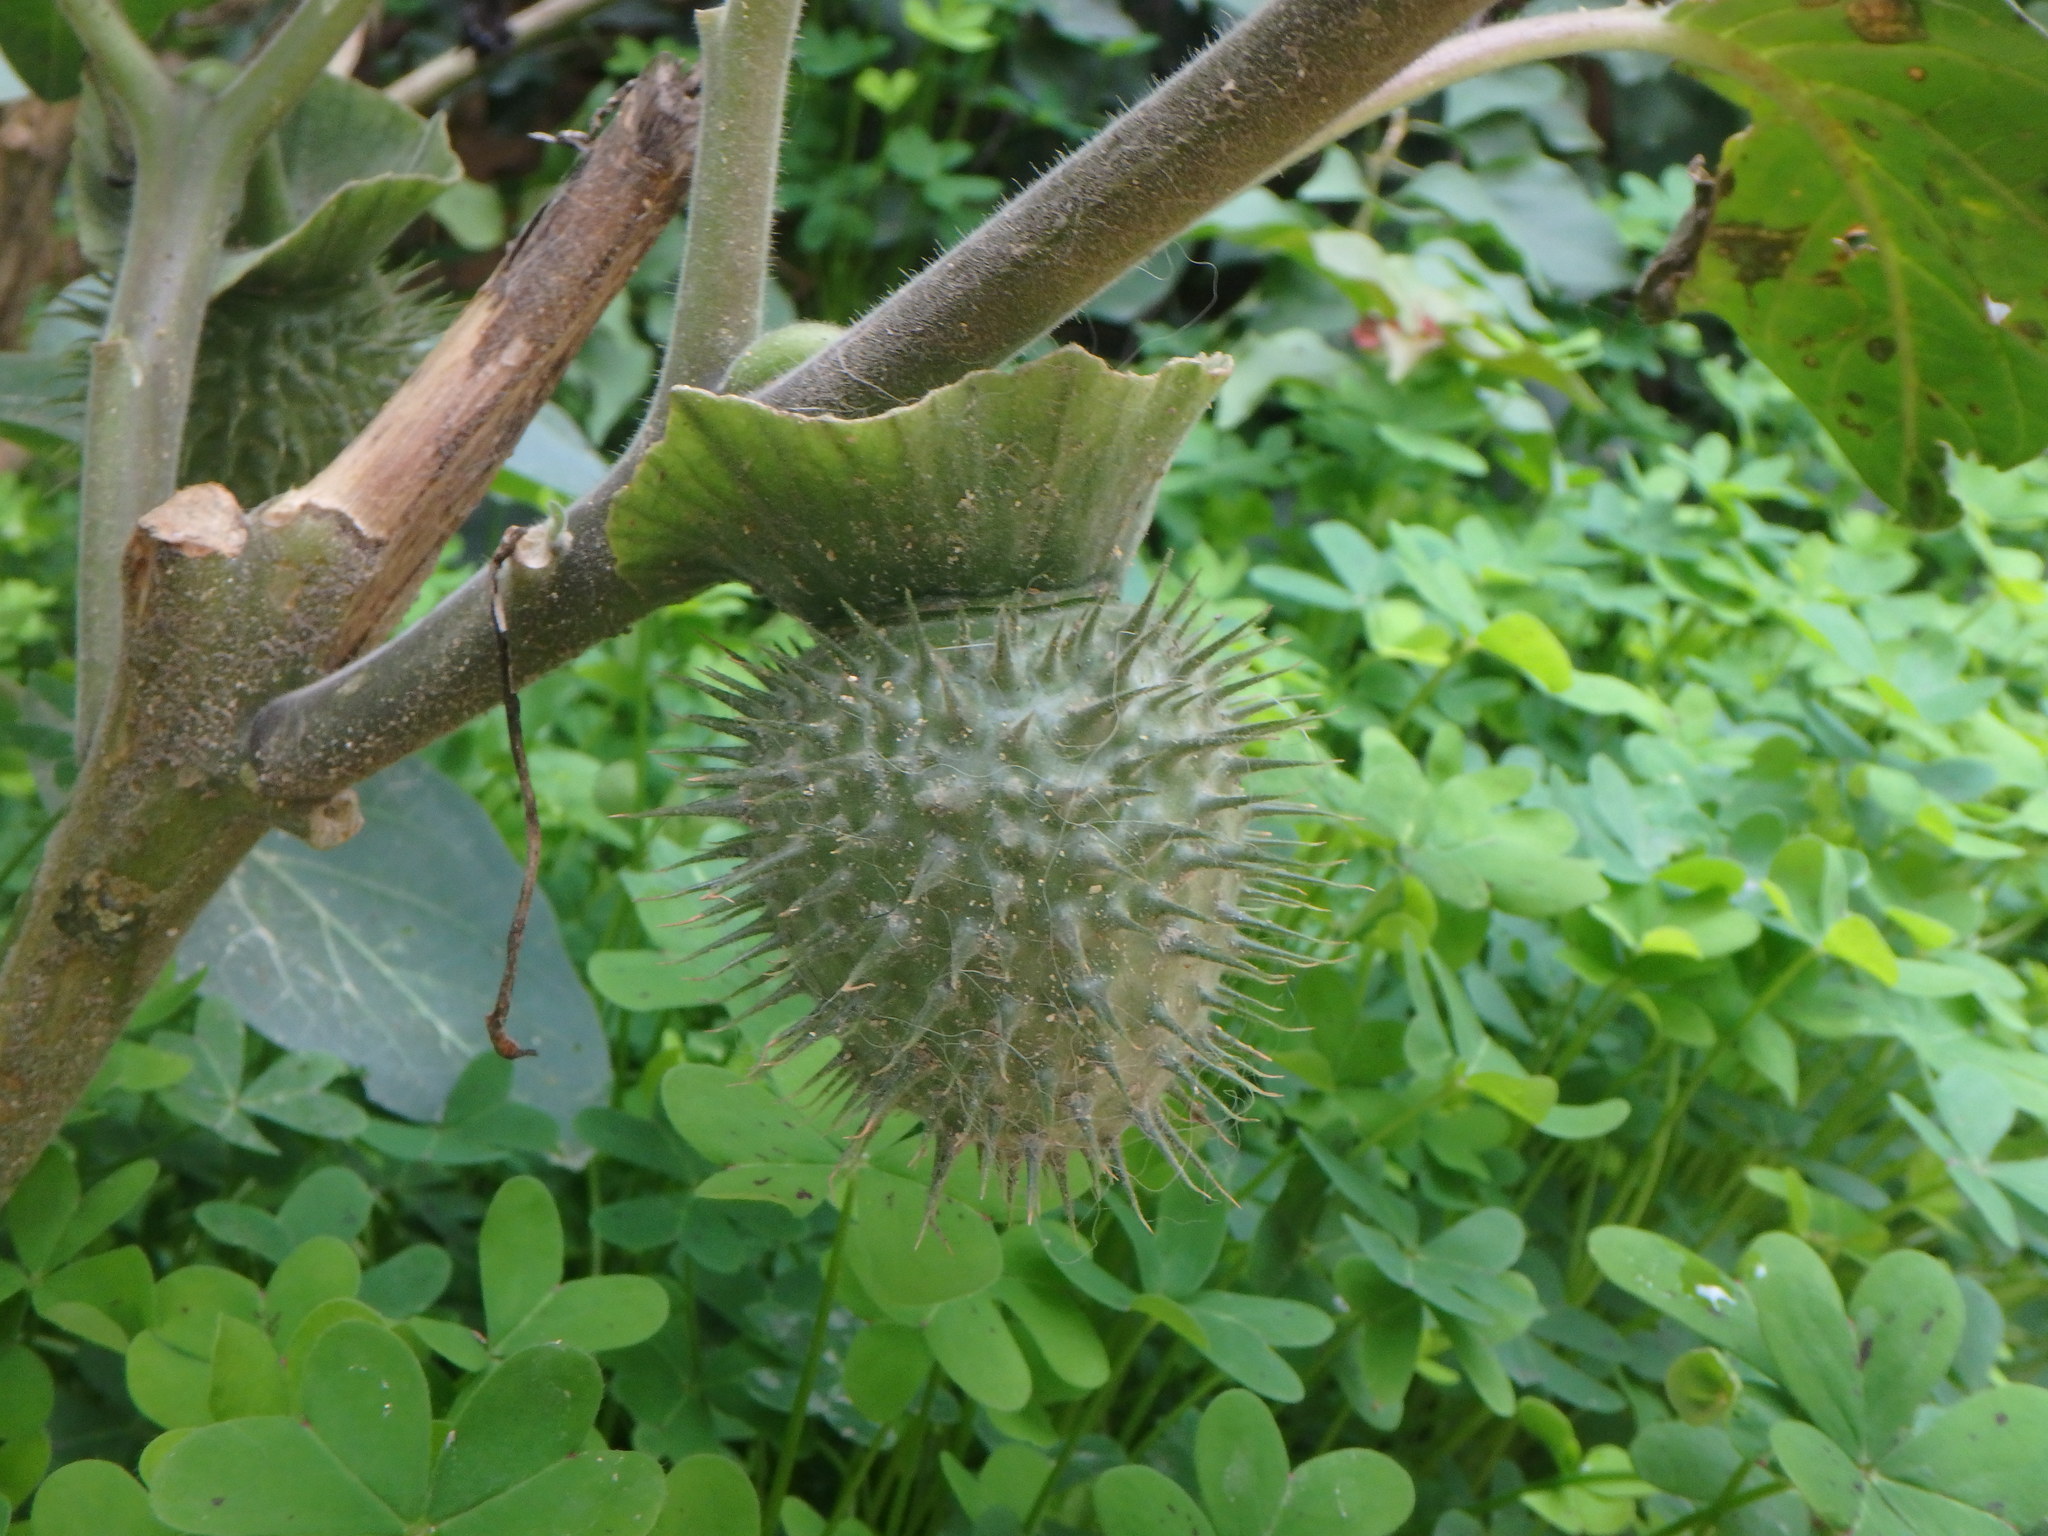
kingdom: Plantae
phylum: Tracheophyta
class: Magnoliopsida
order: Solanales
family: Solanaceae
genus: Datura
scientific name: Datura innoxia
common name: Downy thorn-apple
